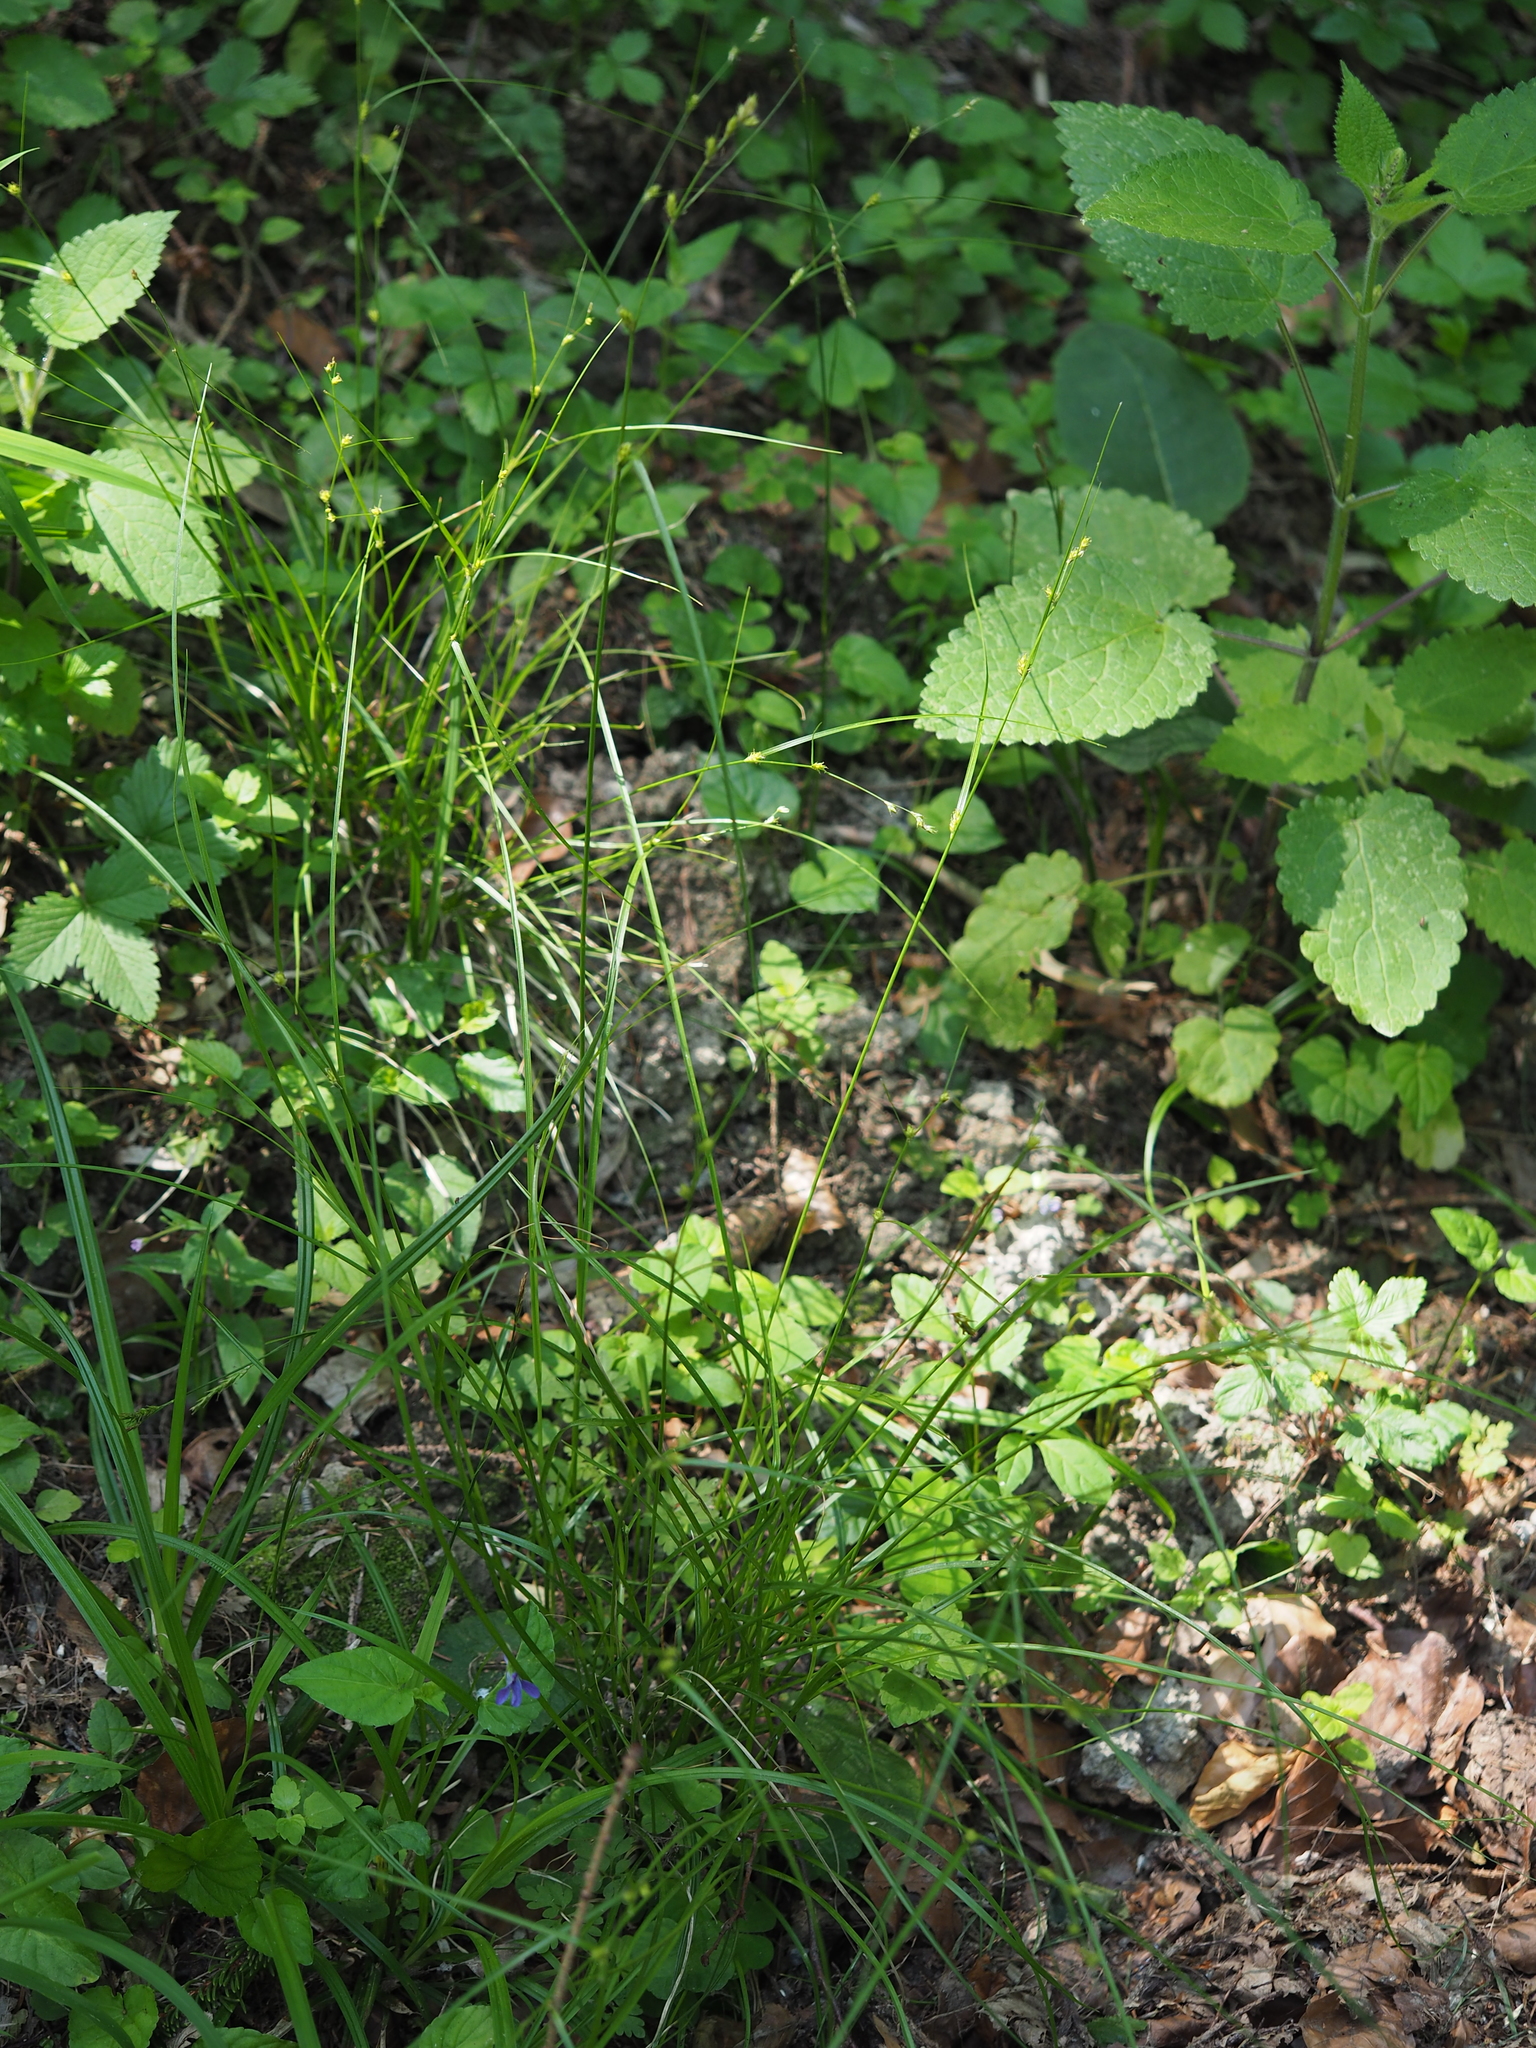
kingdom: Plantae
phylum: Tracheophyta
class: Liliopsida
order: Poales
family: Cyperaceae
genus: Carex
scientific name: Carex remota
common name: Remote sedge
